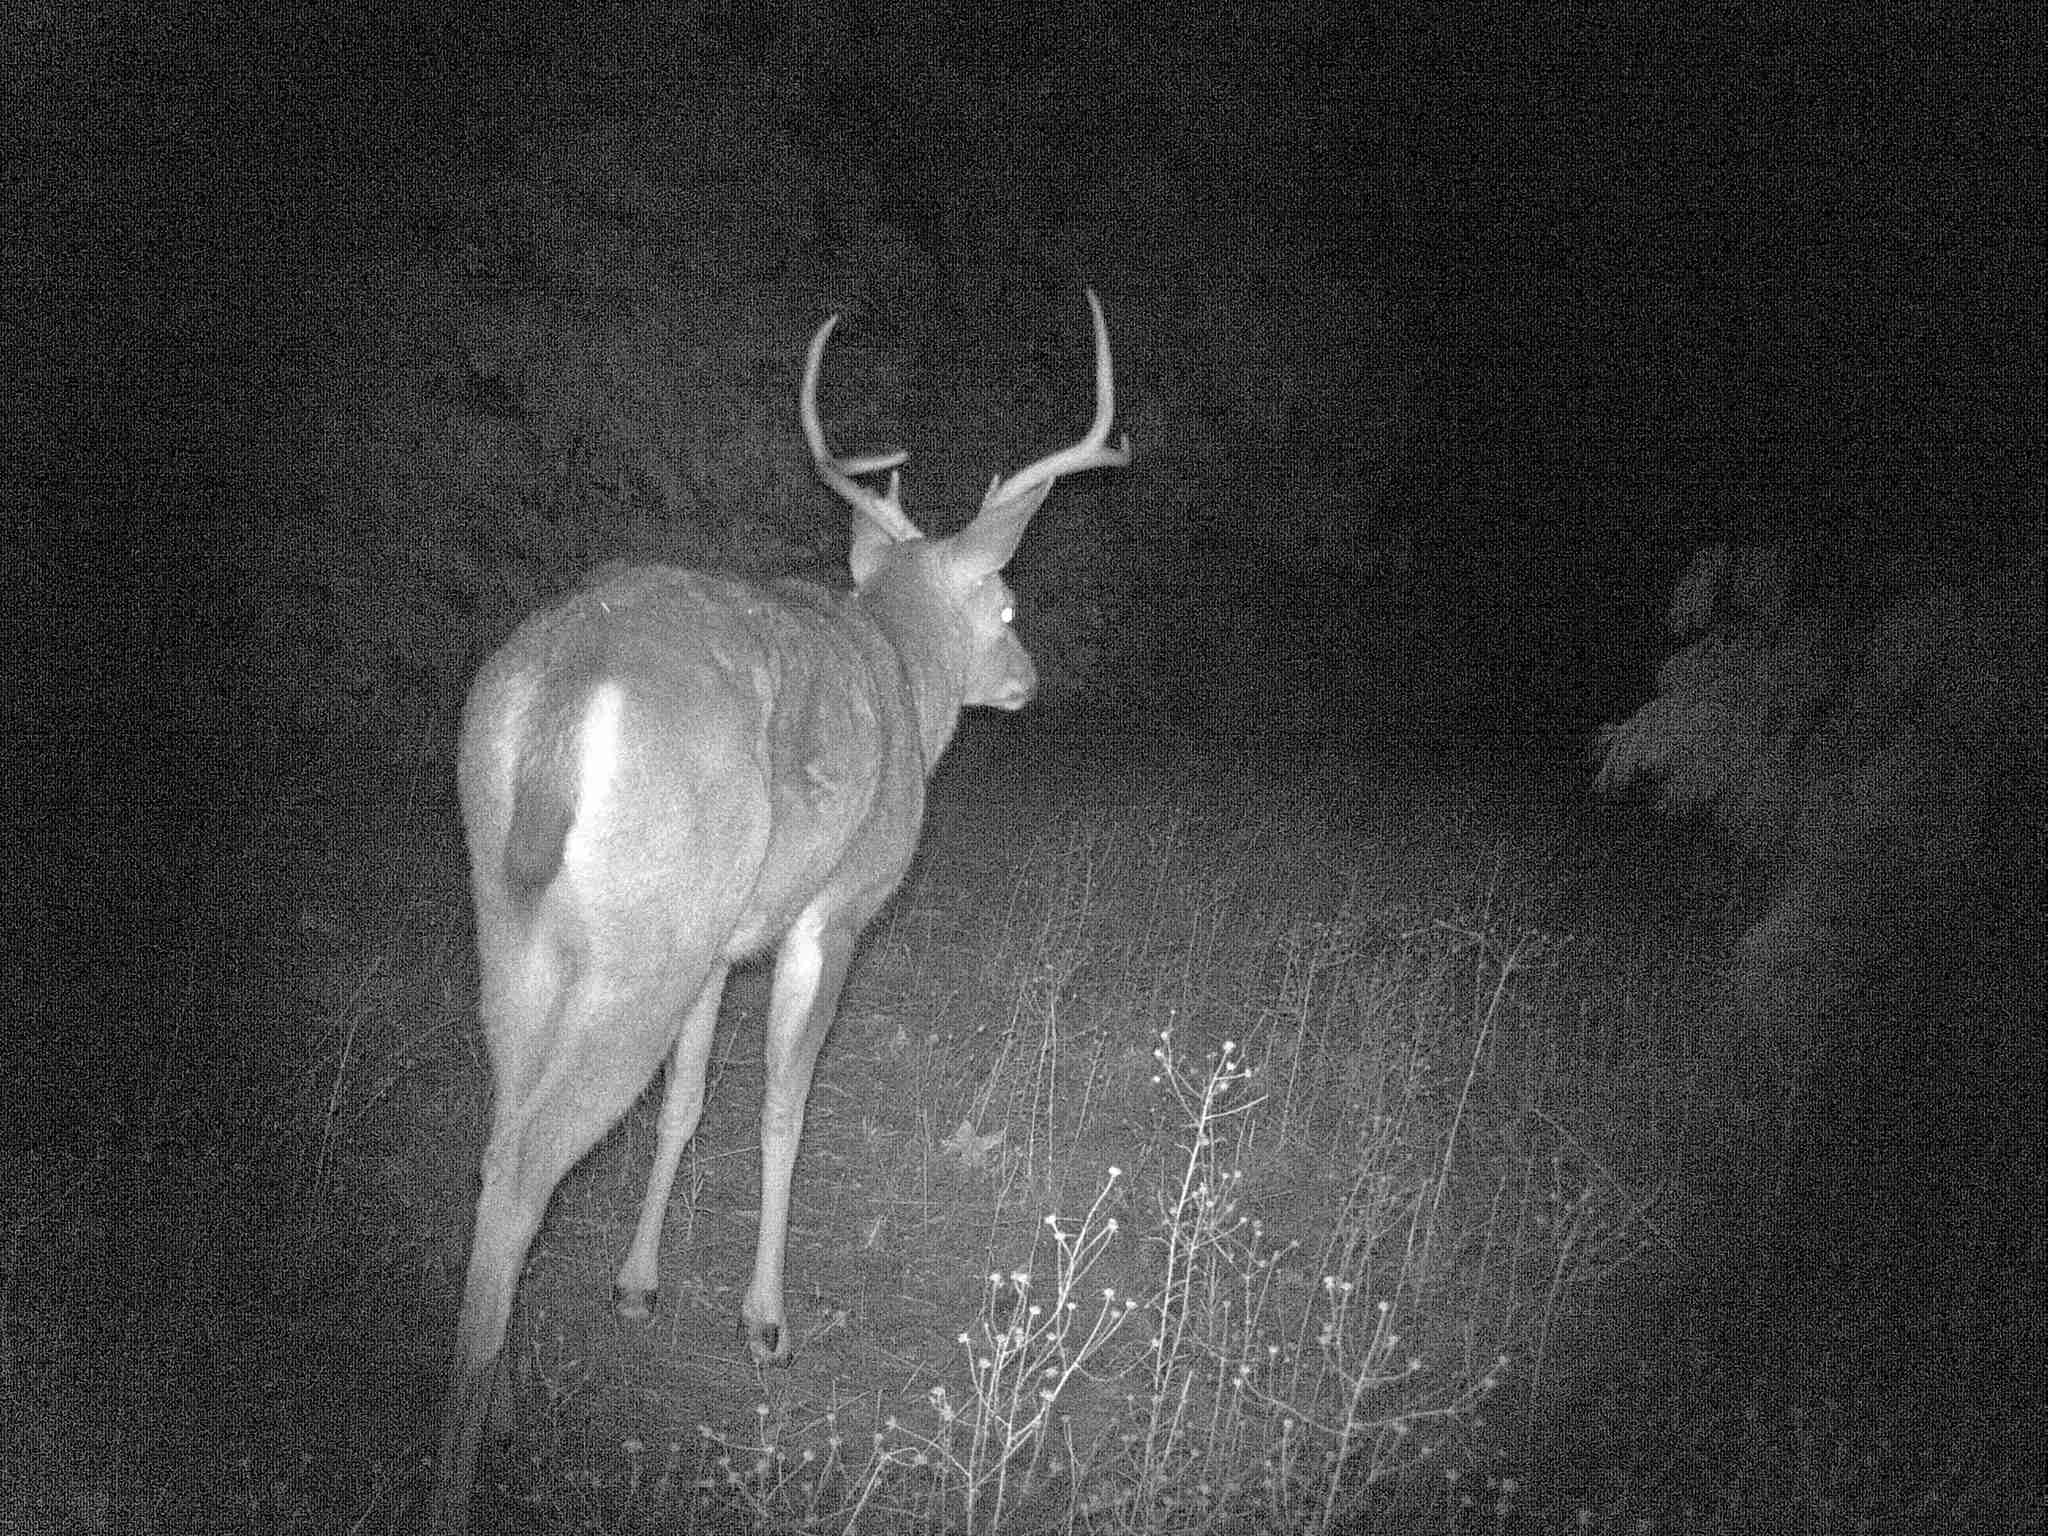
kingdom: Animalia
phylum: Chordata
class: Mammalia
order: Artiodactyla
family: Cervidae
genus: Odocoileus
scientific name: Odocoileus hemionus
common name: Mule deer
